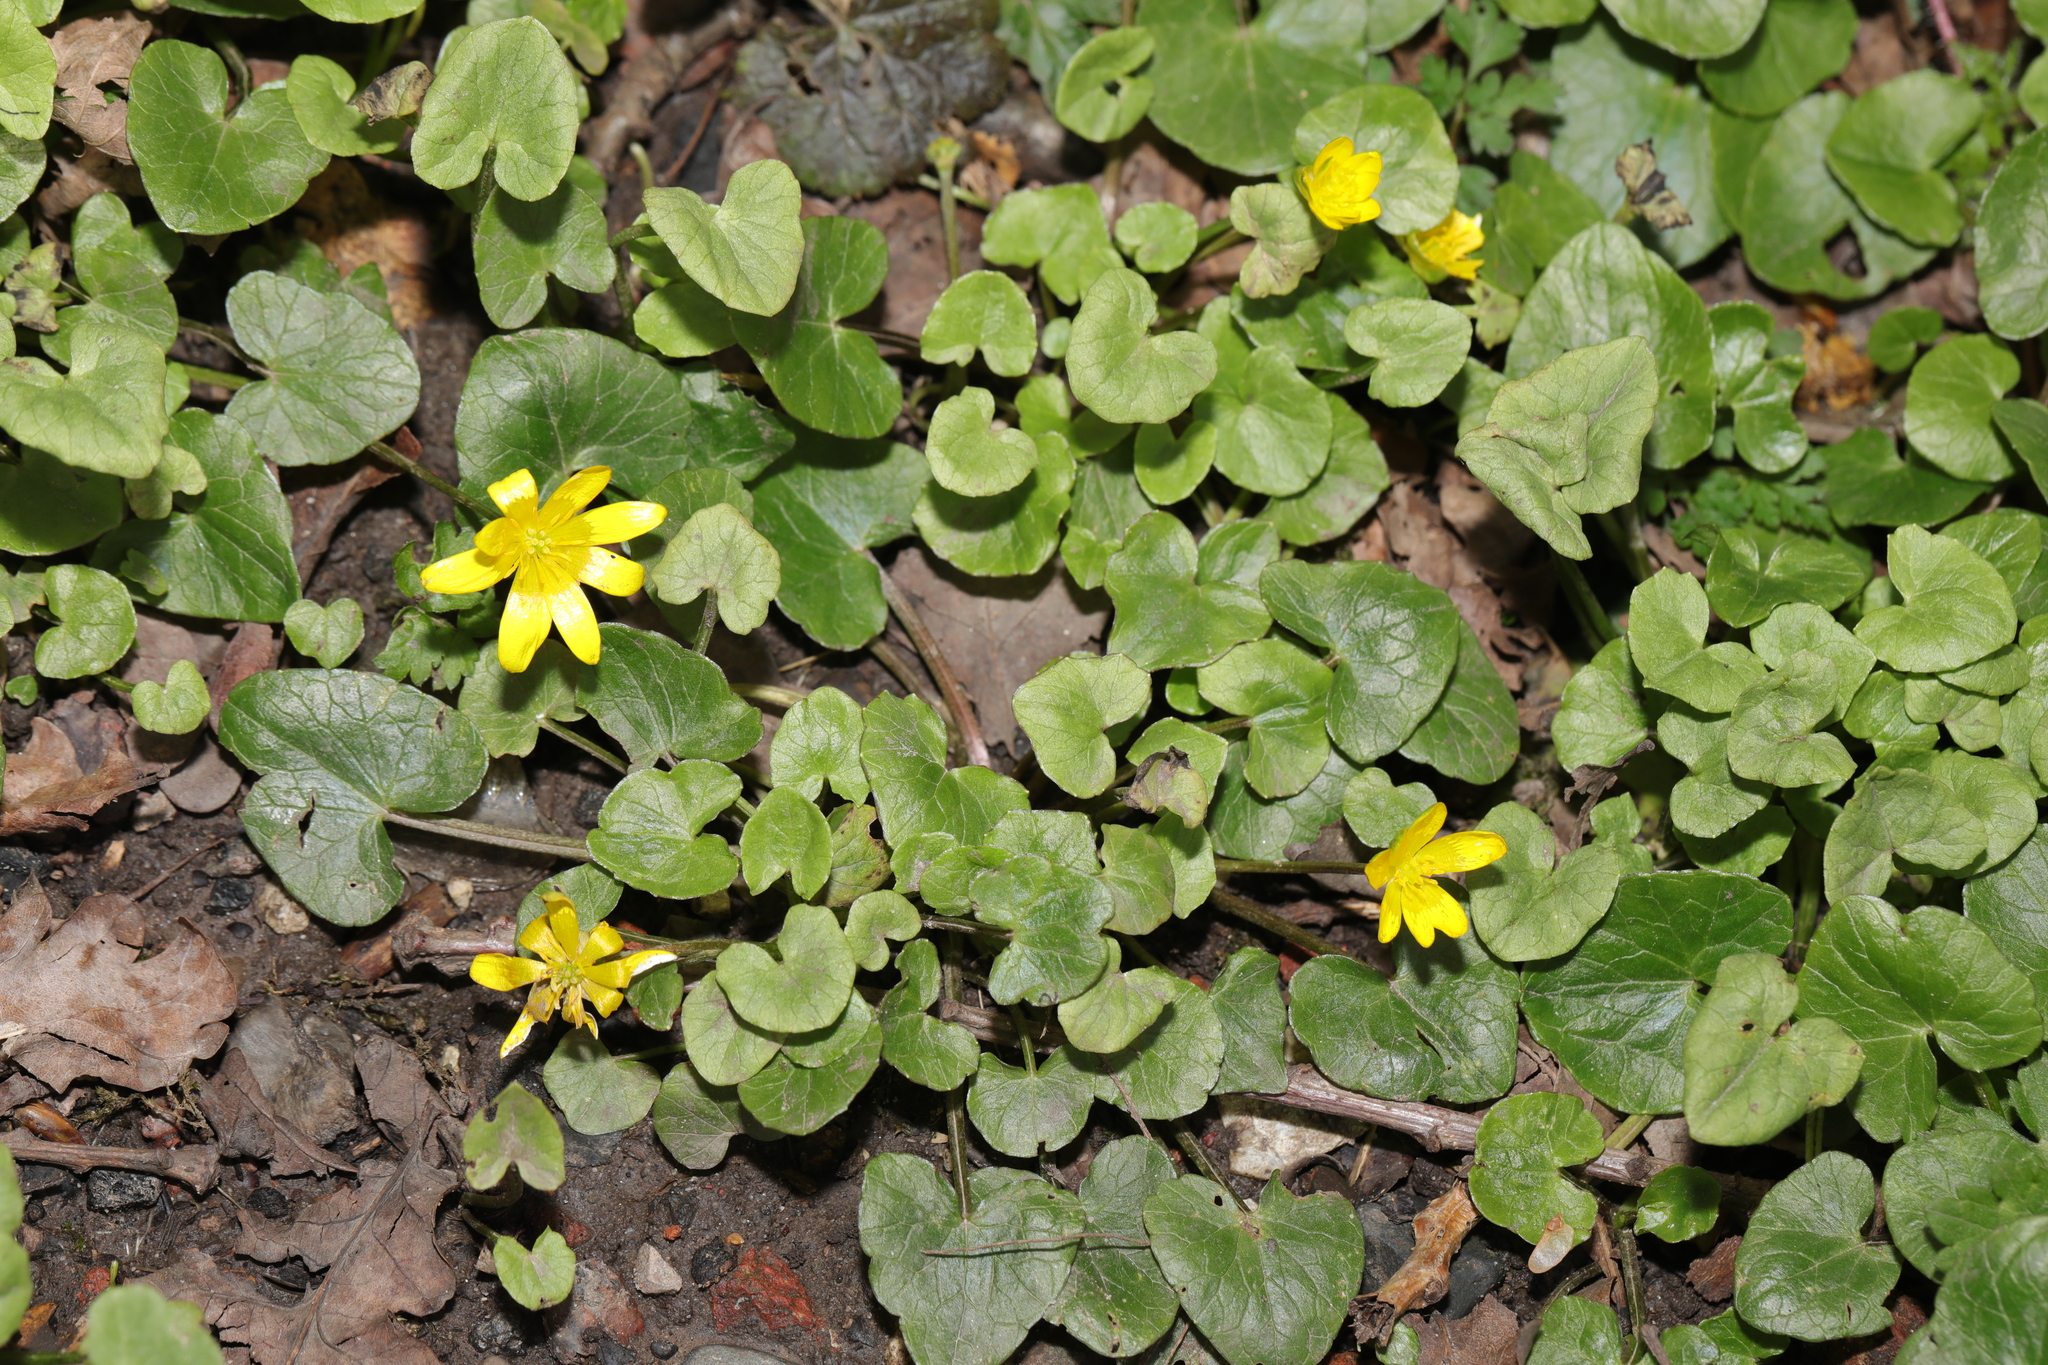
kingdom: Plantae
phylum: Tracheophyta
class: Magnoliopsida
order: Ranunculales
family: Ranunculaceae
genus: Ficaria
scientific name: Ficaria verna
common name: Lesser celandine
